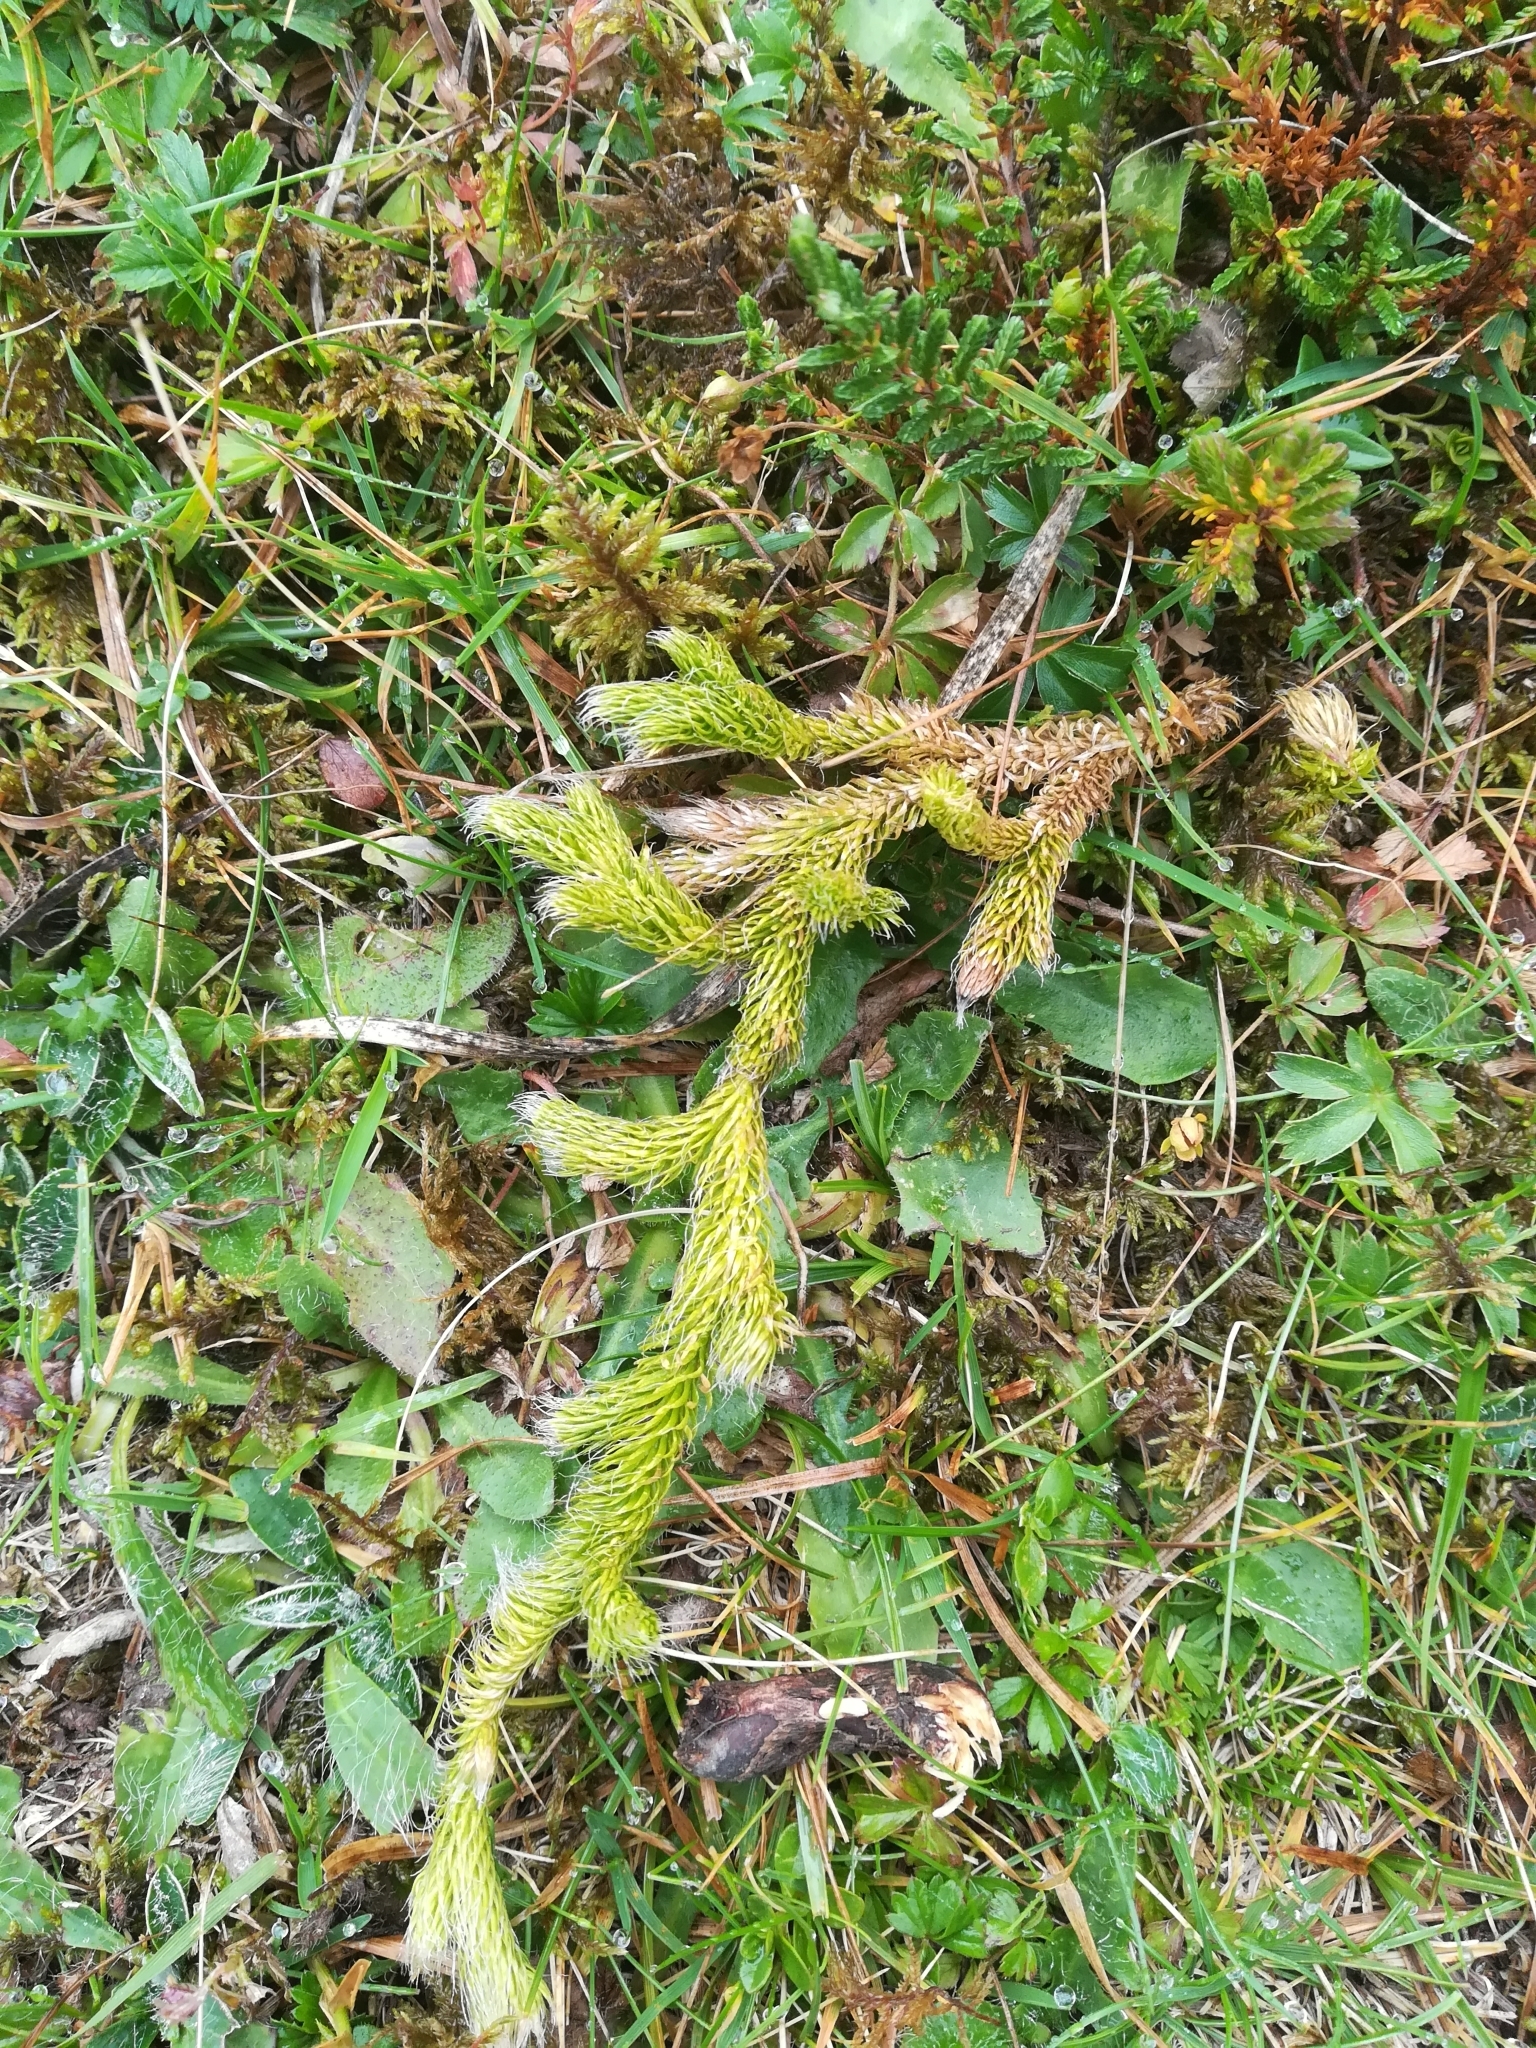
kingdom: Plantae
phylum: Tracheophyta
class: Lycopodiopsida
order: Lycopodiales
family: Lycopodiaceae
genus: Lycopodium
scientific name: Lycopodium clavatum
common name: Stag's-horn clubmoss
